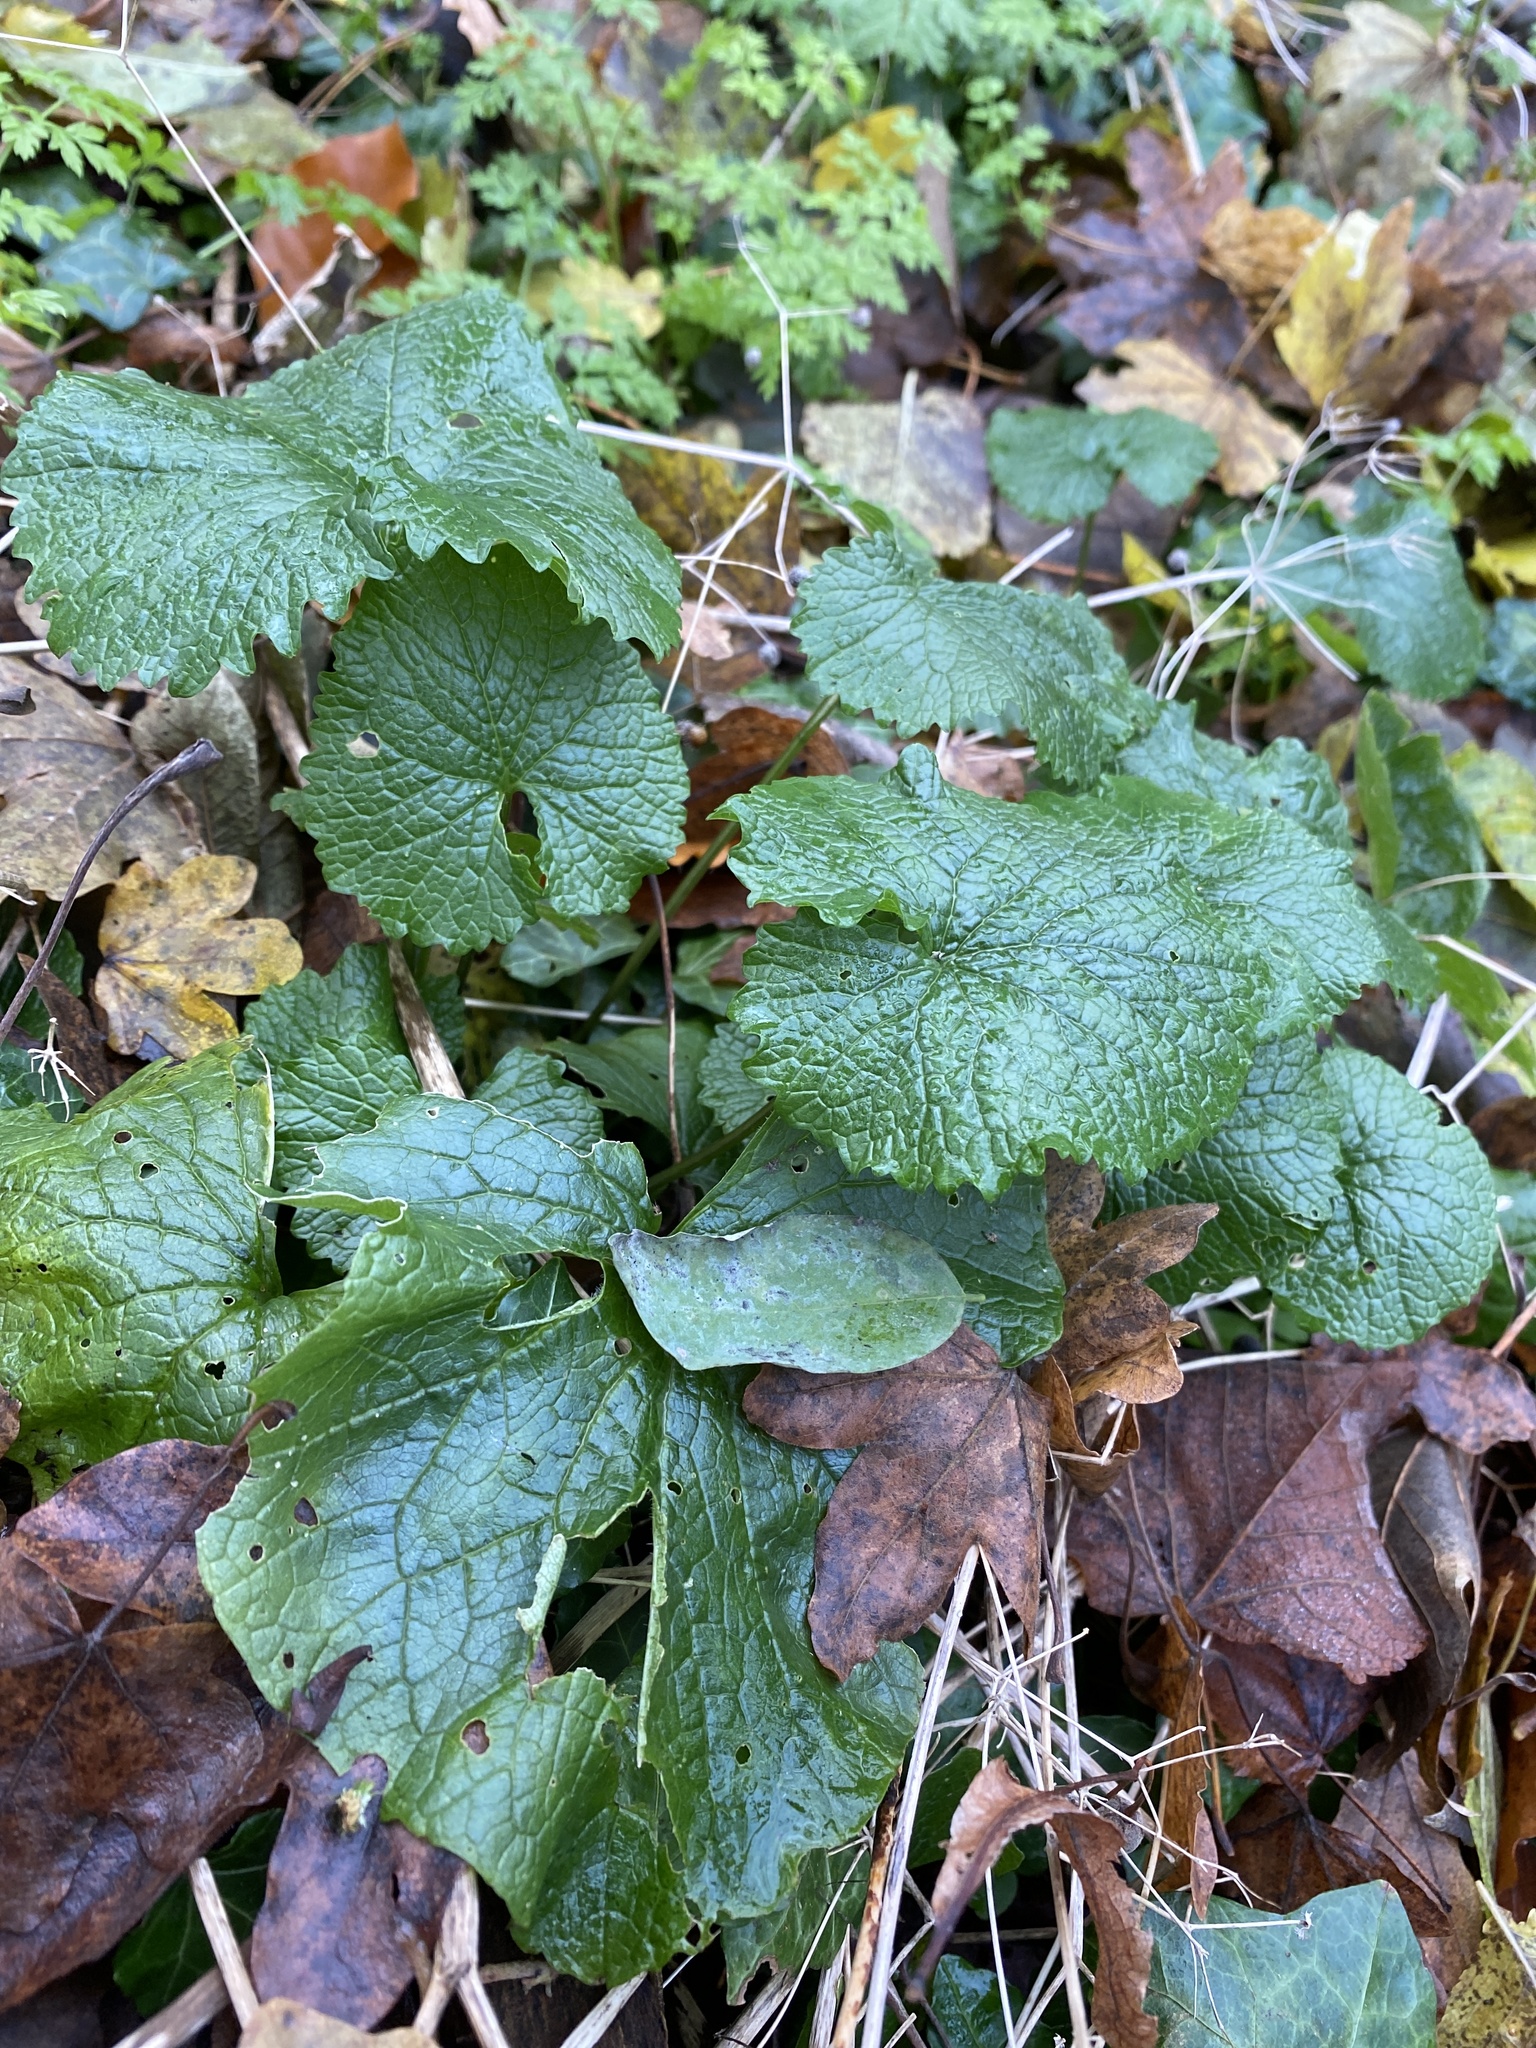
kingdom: Plantae
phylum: Tracheophyta
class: Magnoliopsida
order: Brassicales
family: Brassicaceae
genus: Alliaria
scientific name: Alliaria petiolata
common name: Garlic mustard
